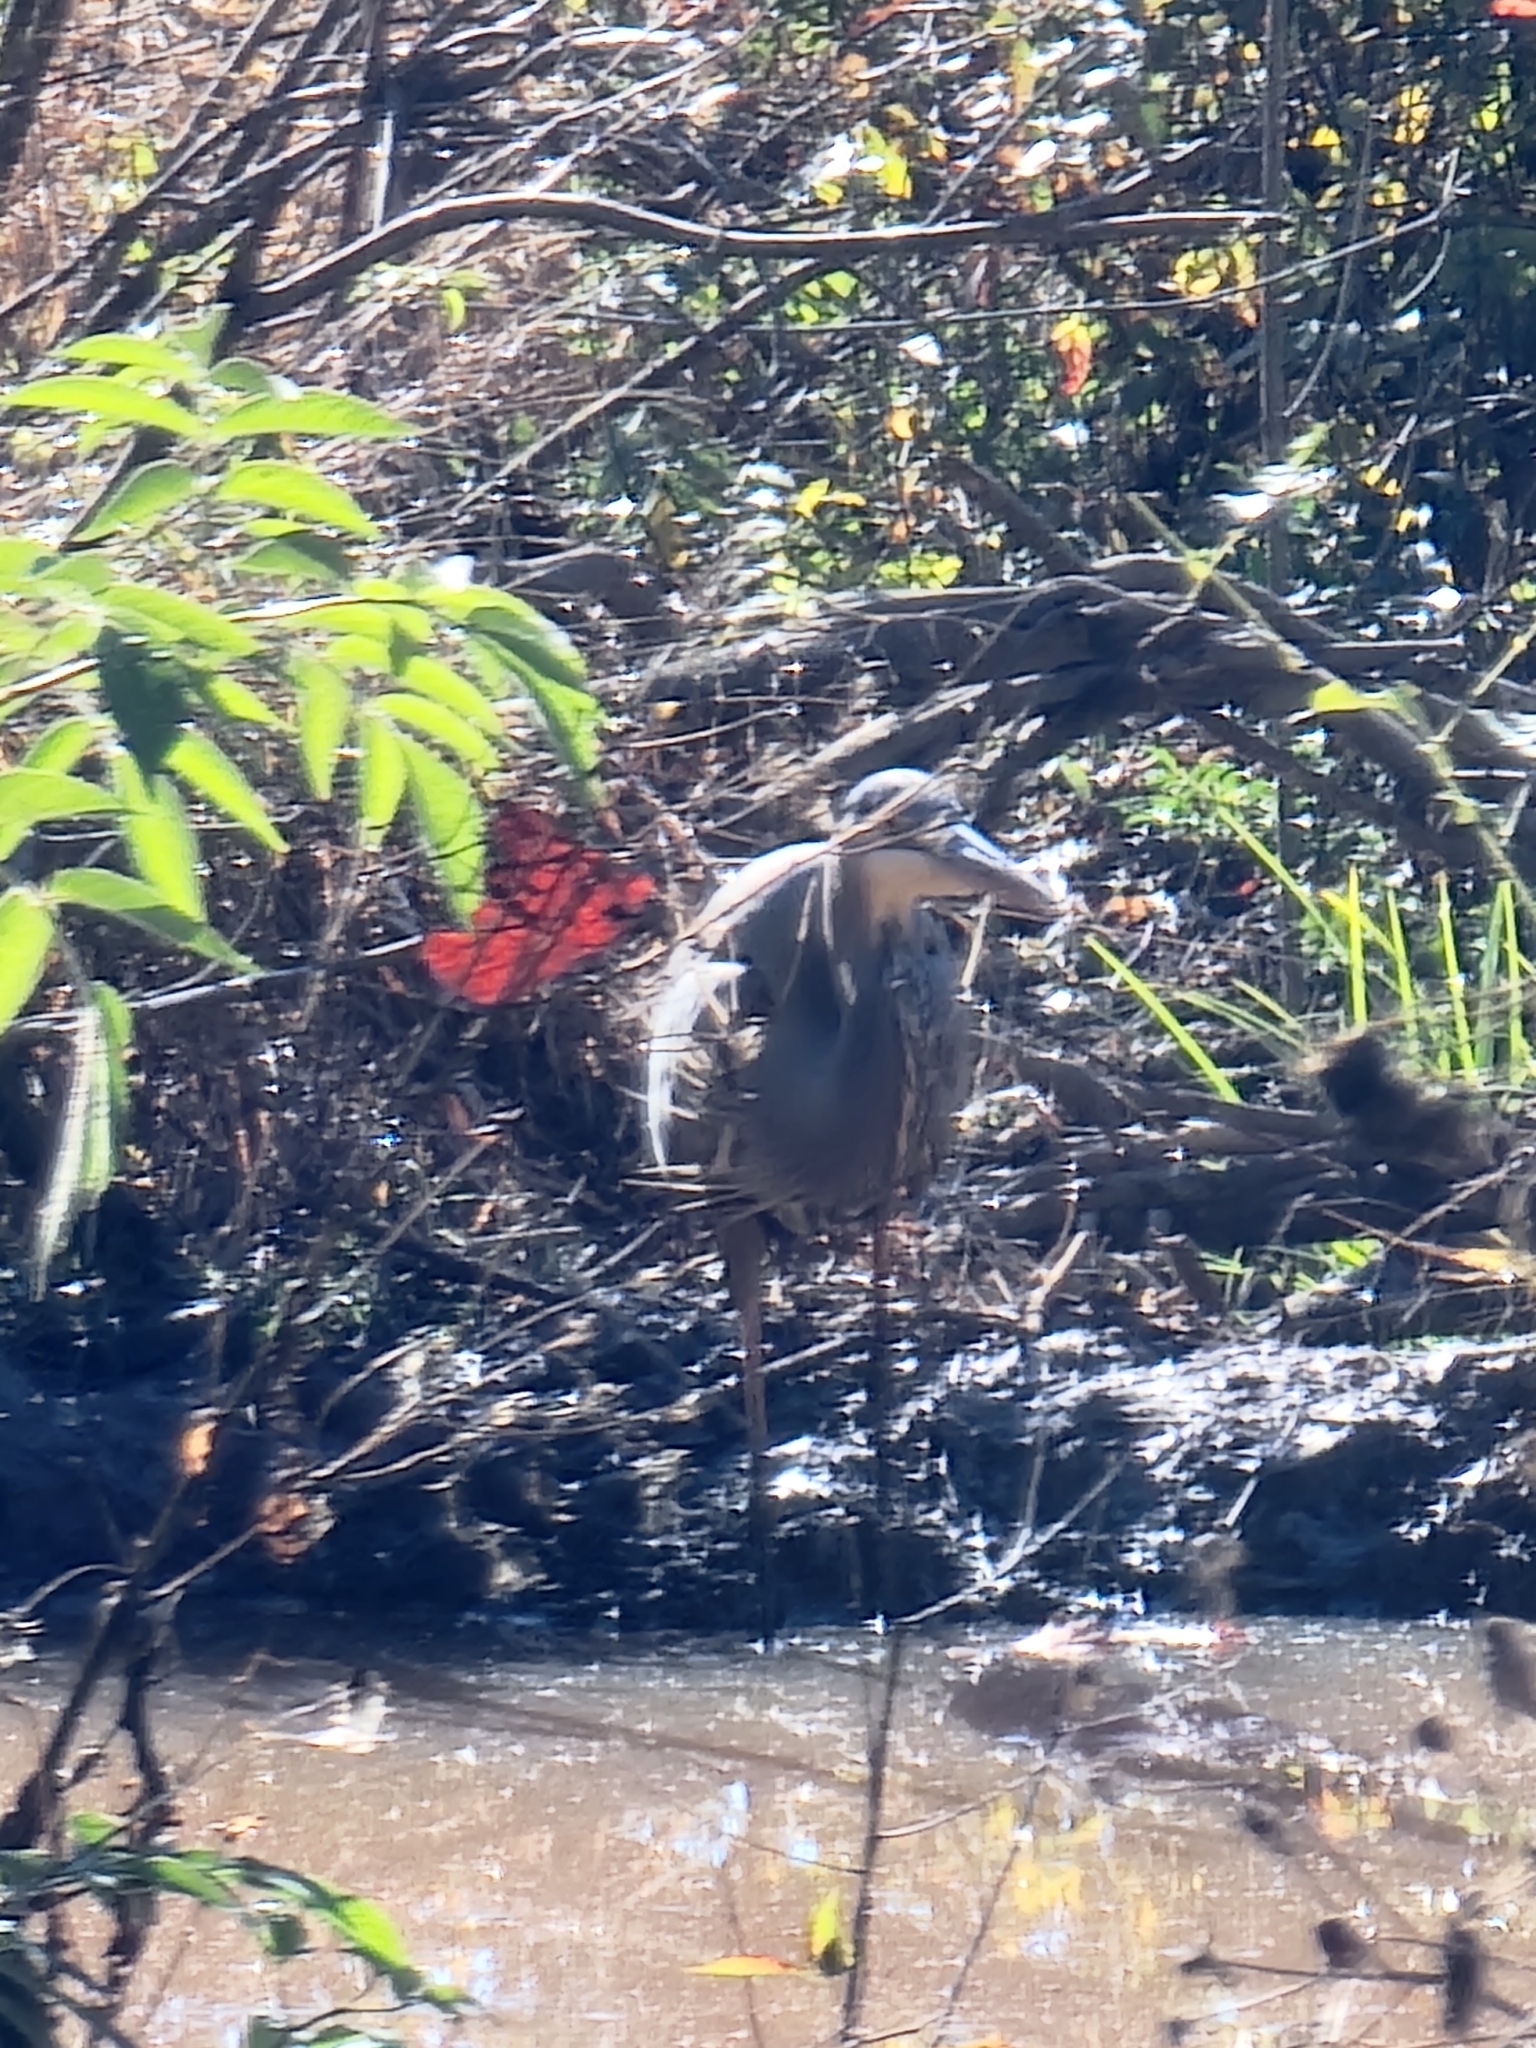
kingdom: Animalia
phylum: Chordata
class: Aves
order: Pelecaniformes
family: Ardeidae
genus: Ardea
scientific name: Ardea herodias
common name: Great blue heron
